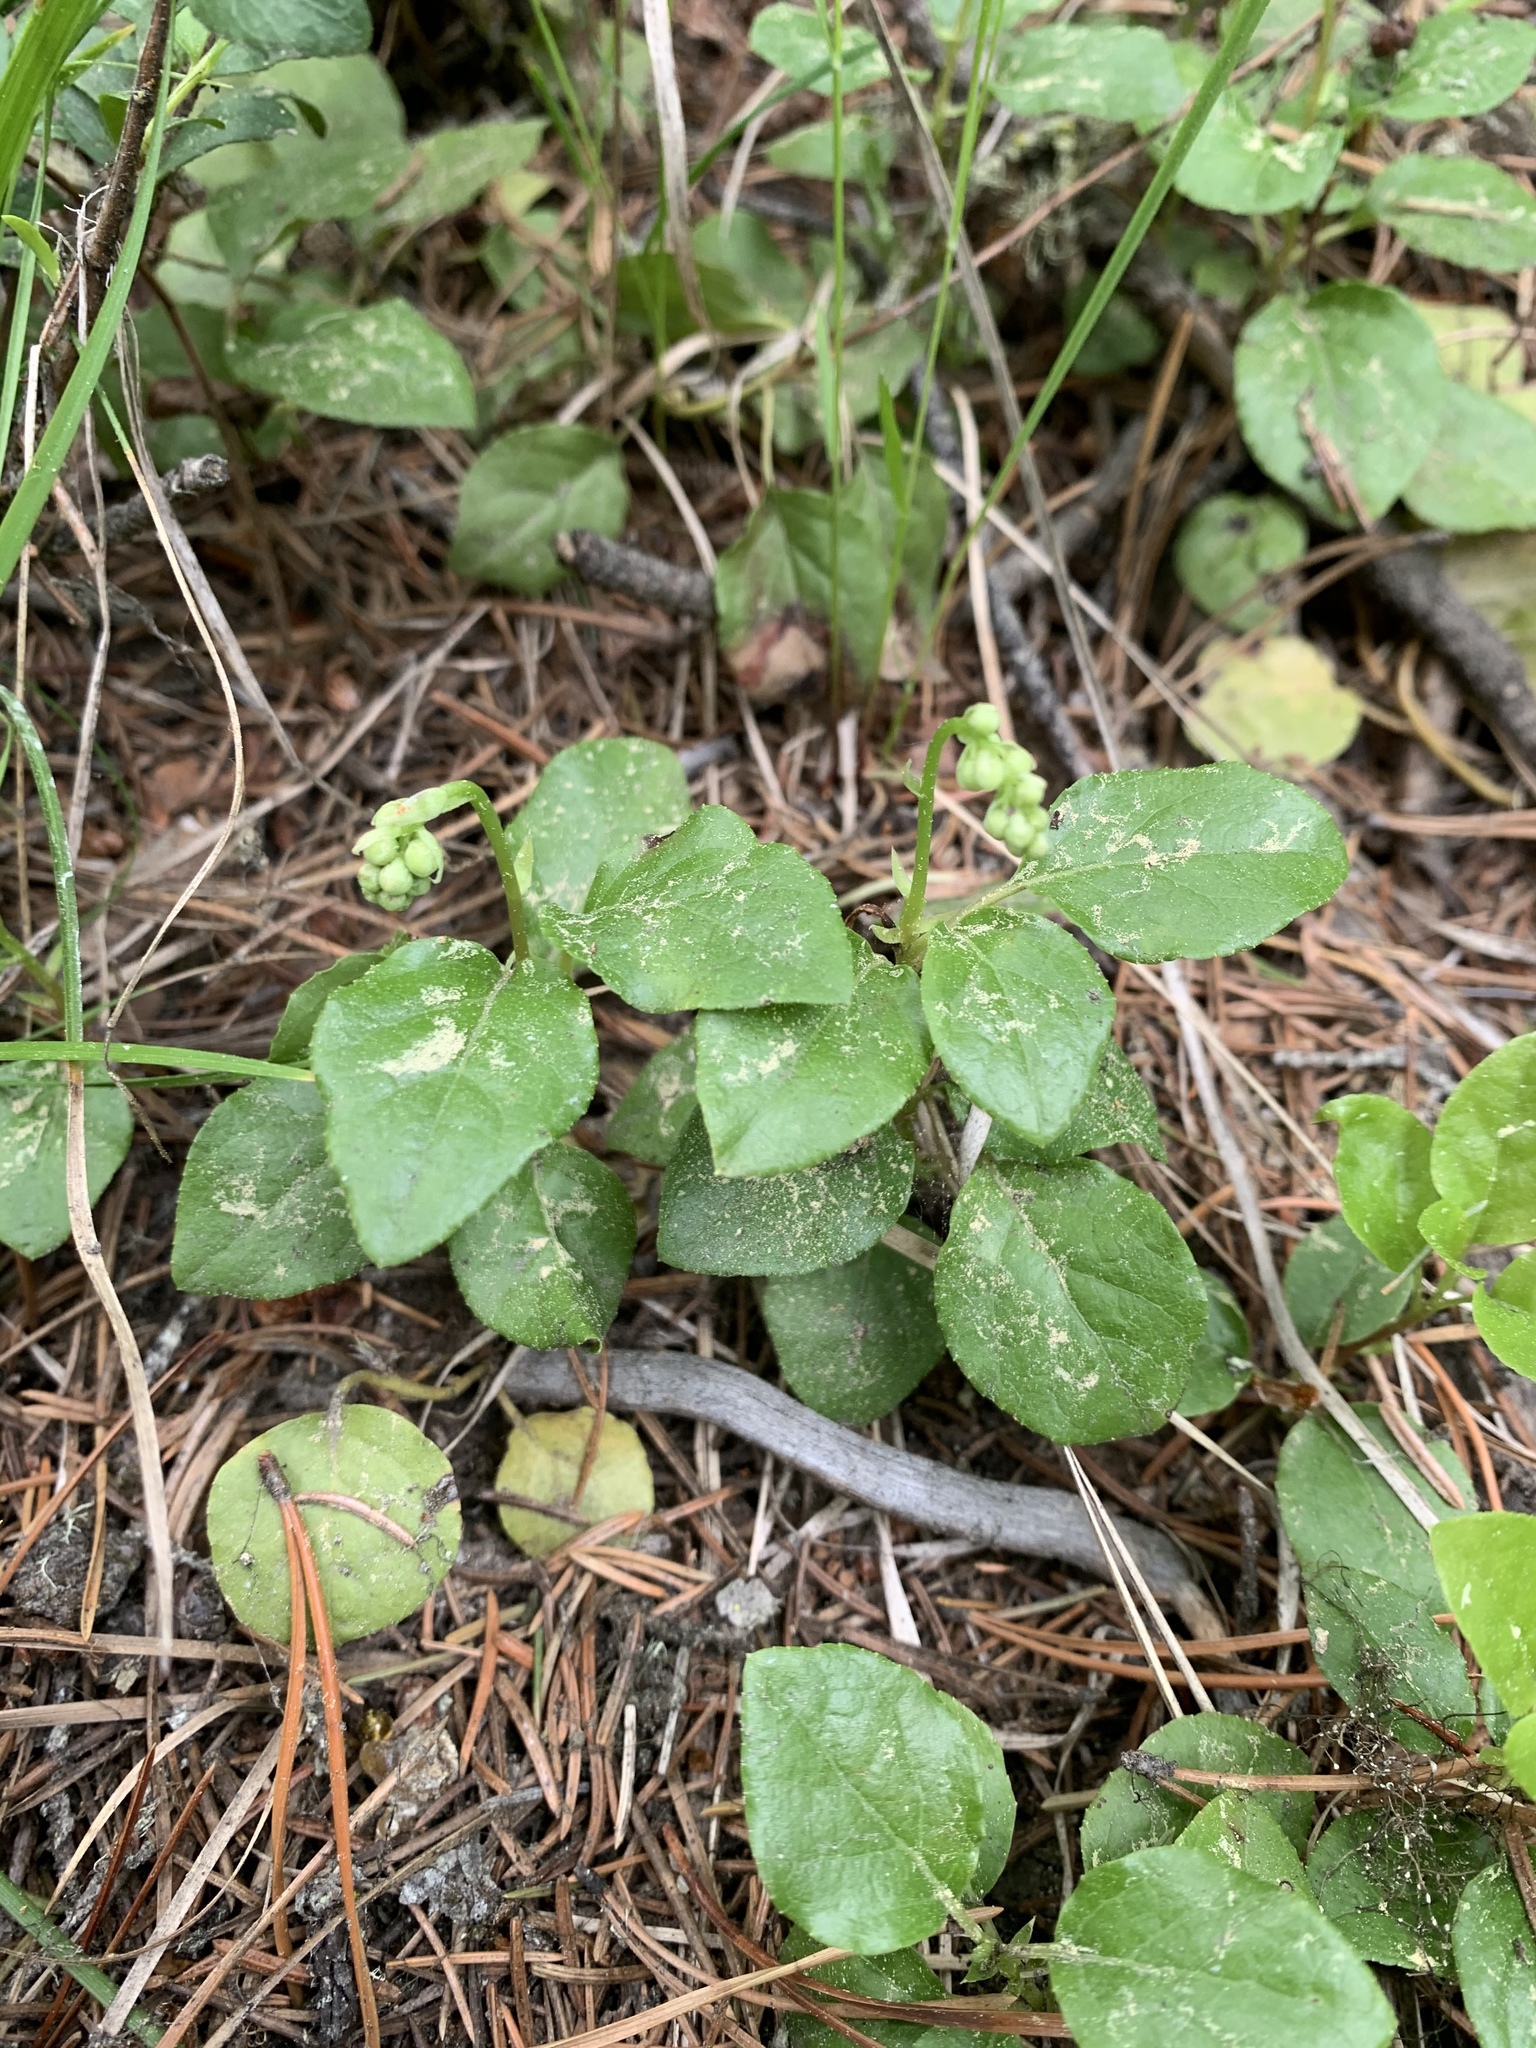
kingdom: Plantae
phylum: Tracheophyta
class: Magnoliopsida
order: Ericales
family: Ericaceae
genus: Orthilia
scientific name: Orthilia secunda
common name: One-sided orthilia
